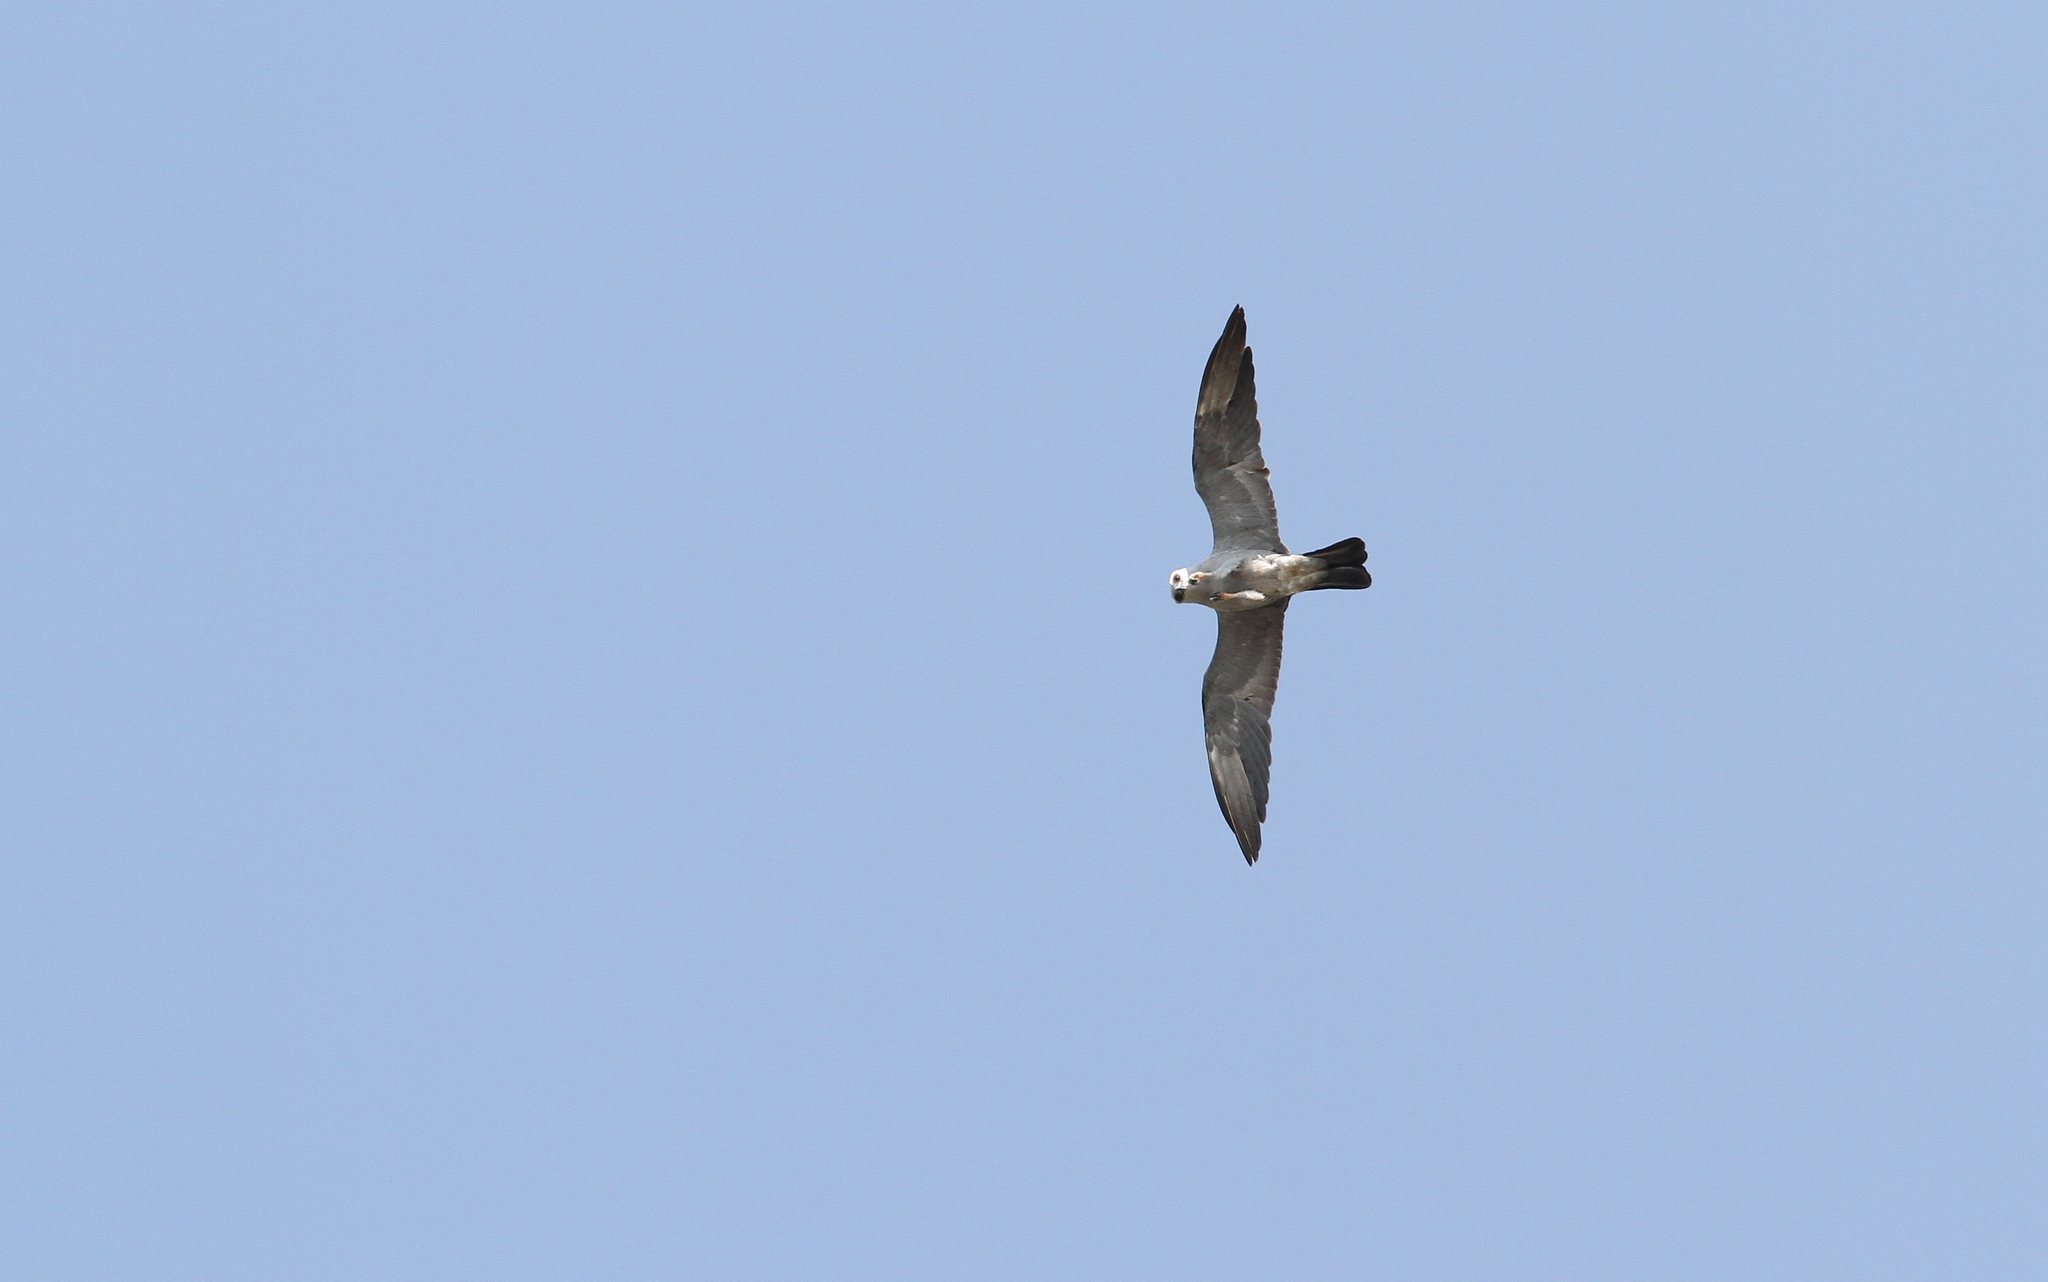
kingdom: Animalia
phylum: Chordata
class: Aves
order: Accipitriformes
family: Accipitridae
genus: Ictinia
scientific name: Ictinia mississippiensis
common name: Mississippi kite
